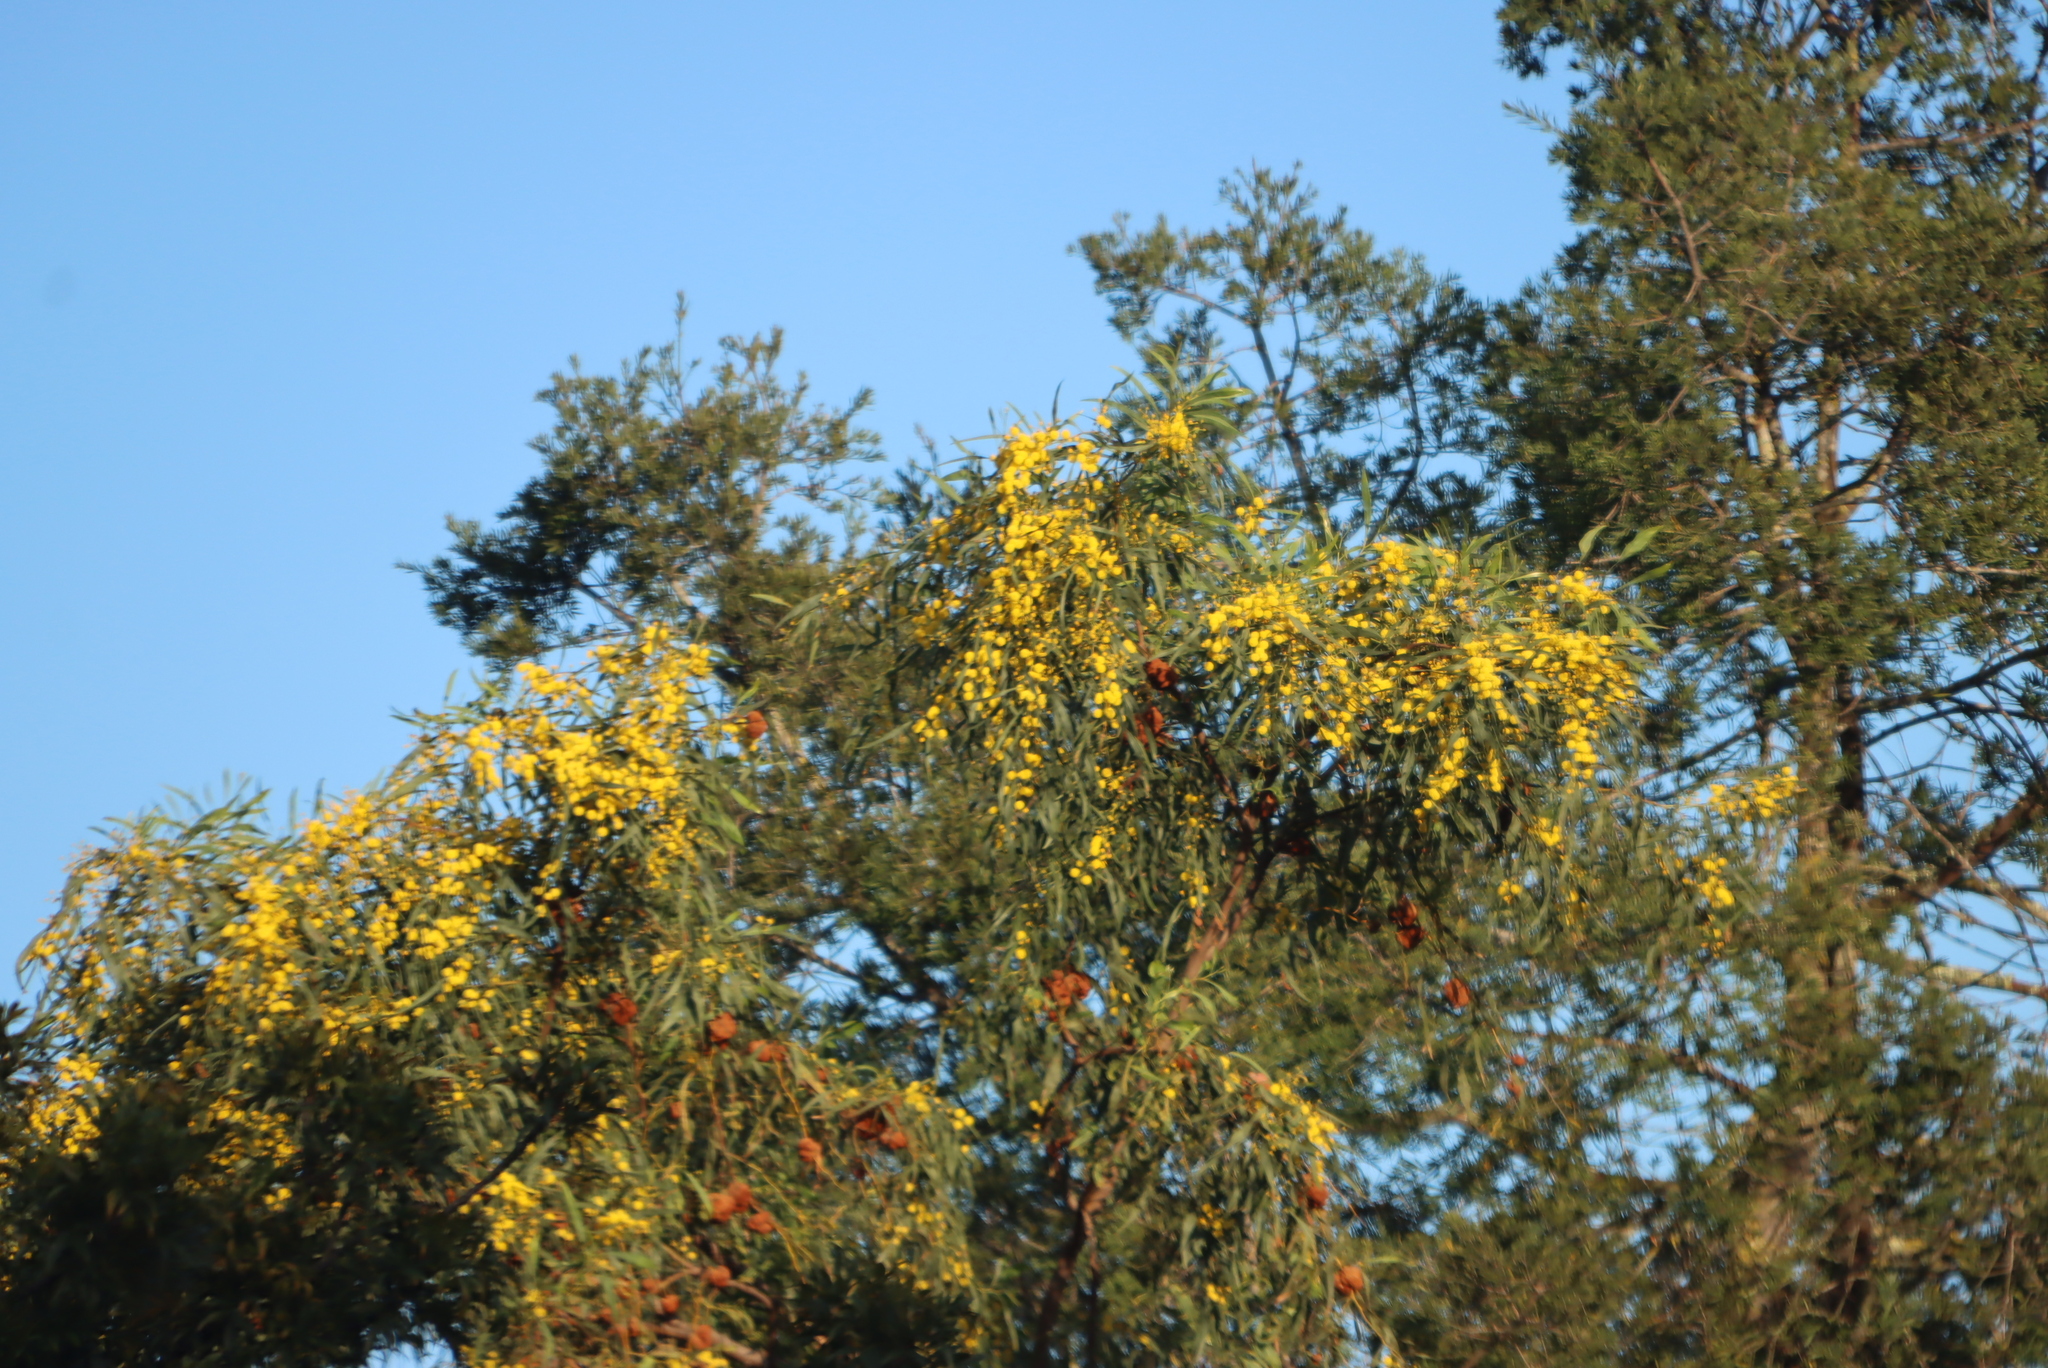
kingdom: Plantae
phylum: Tracheophyta
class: Magnoliopsida
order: Fabales
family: Fabaceae
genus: Acacia
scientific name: Acacia saligna
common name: Orange wattle
